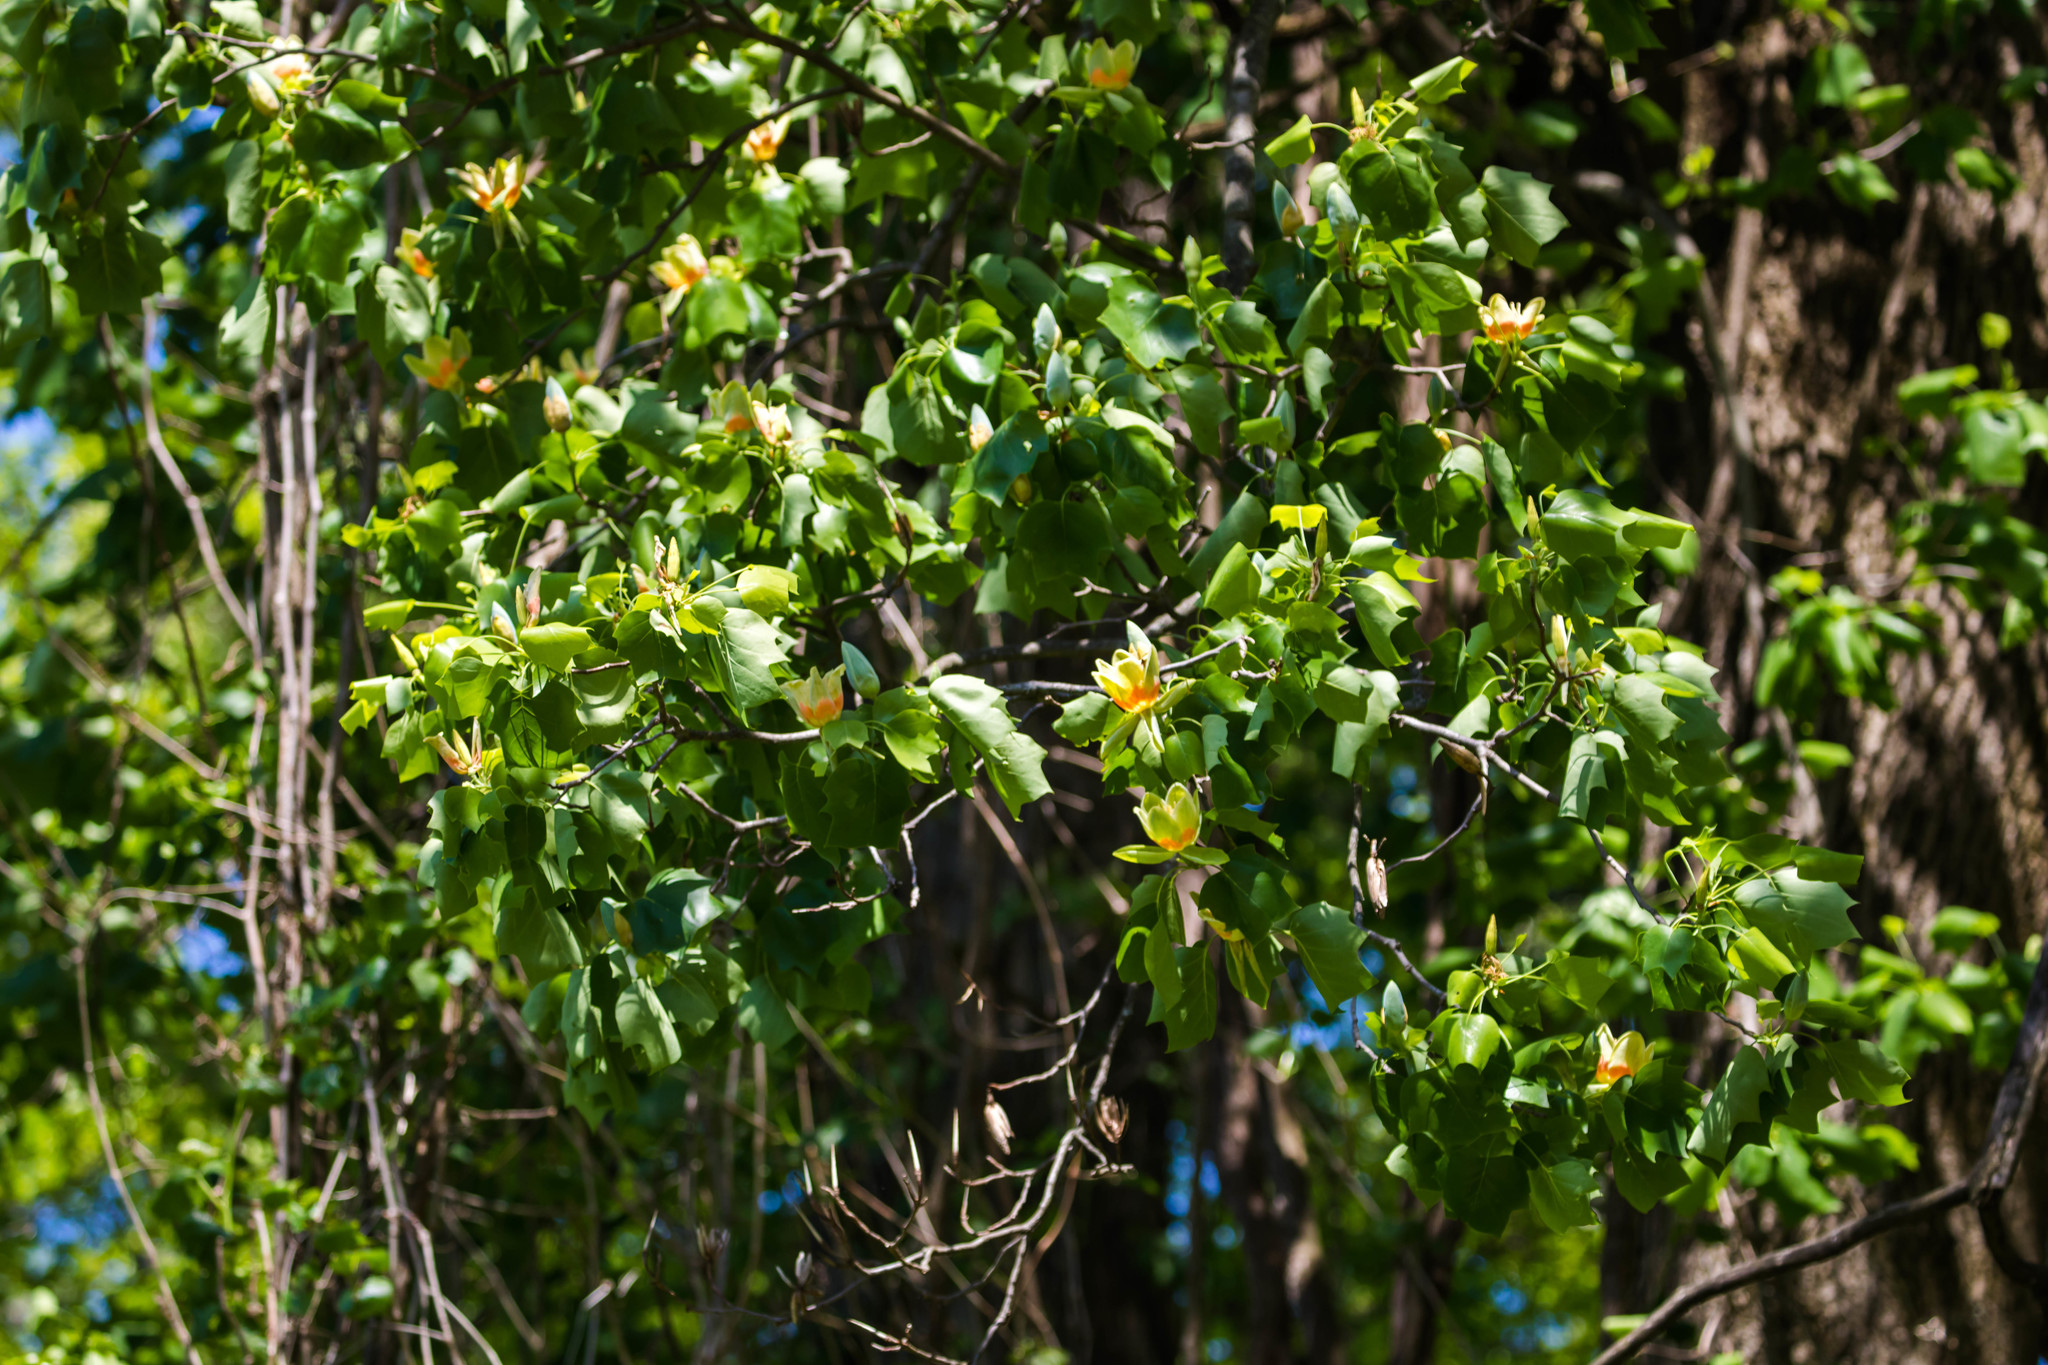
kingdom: Plantae
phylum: Tracheophyta
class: Magnoliopsida
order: Magnoliales
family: Magnoliaceae
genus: Liriodendron
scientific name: Liriodendron tulipifera
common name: Tulip tree
